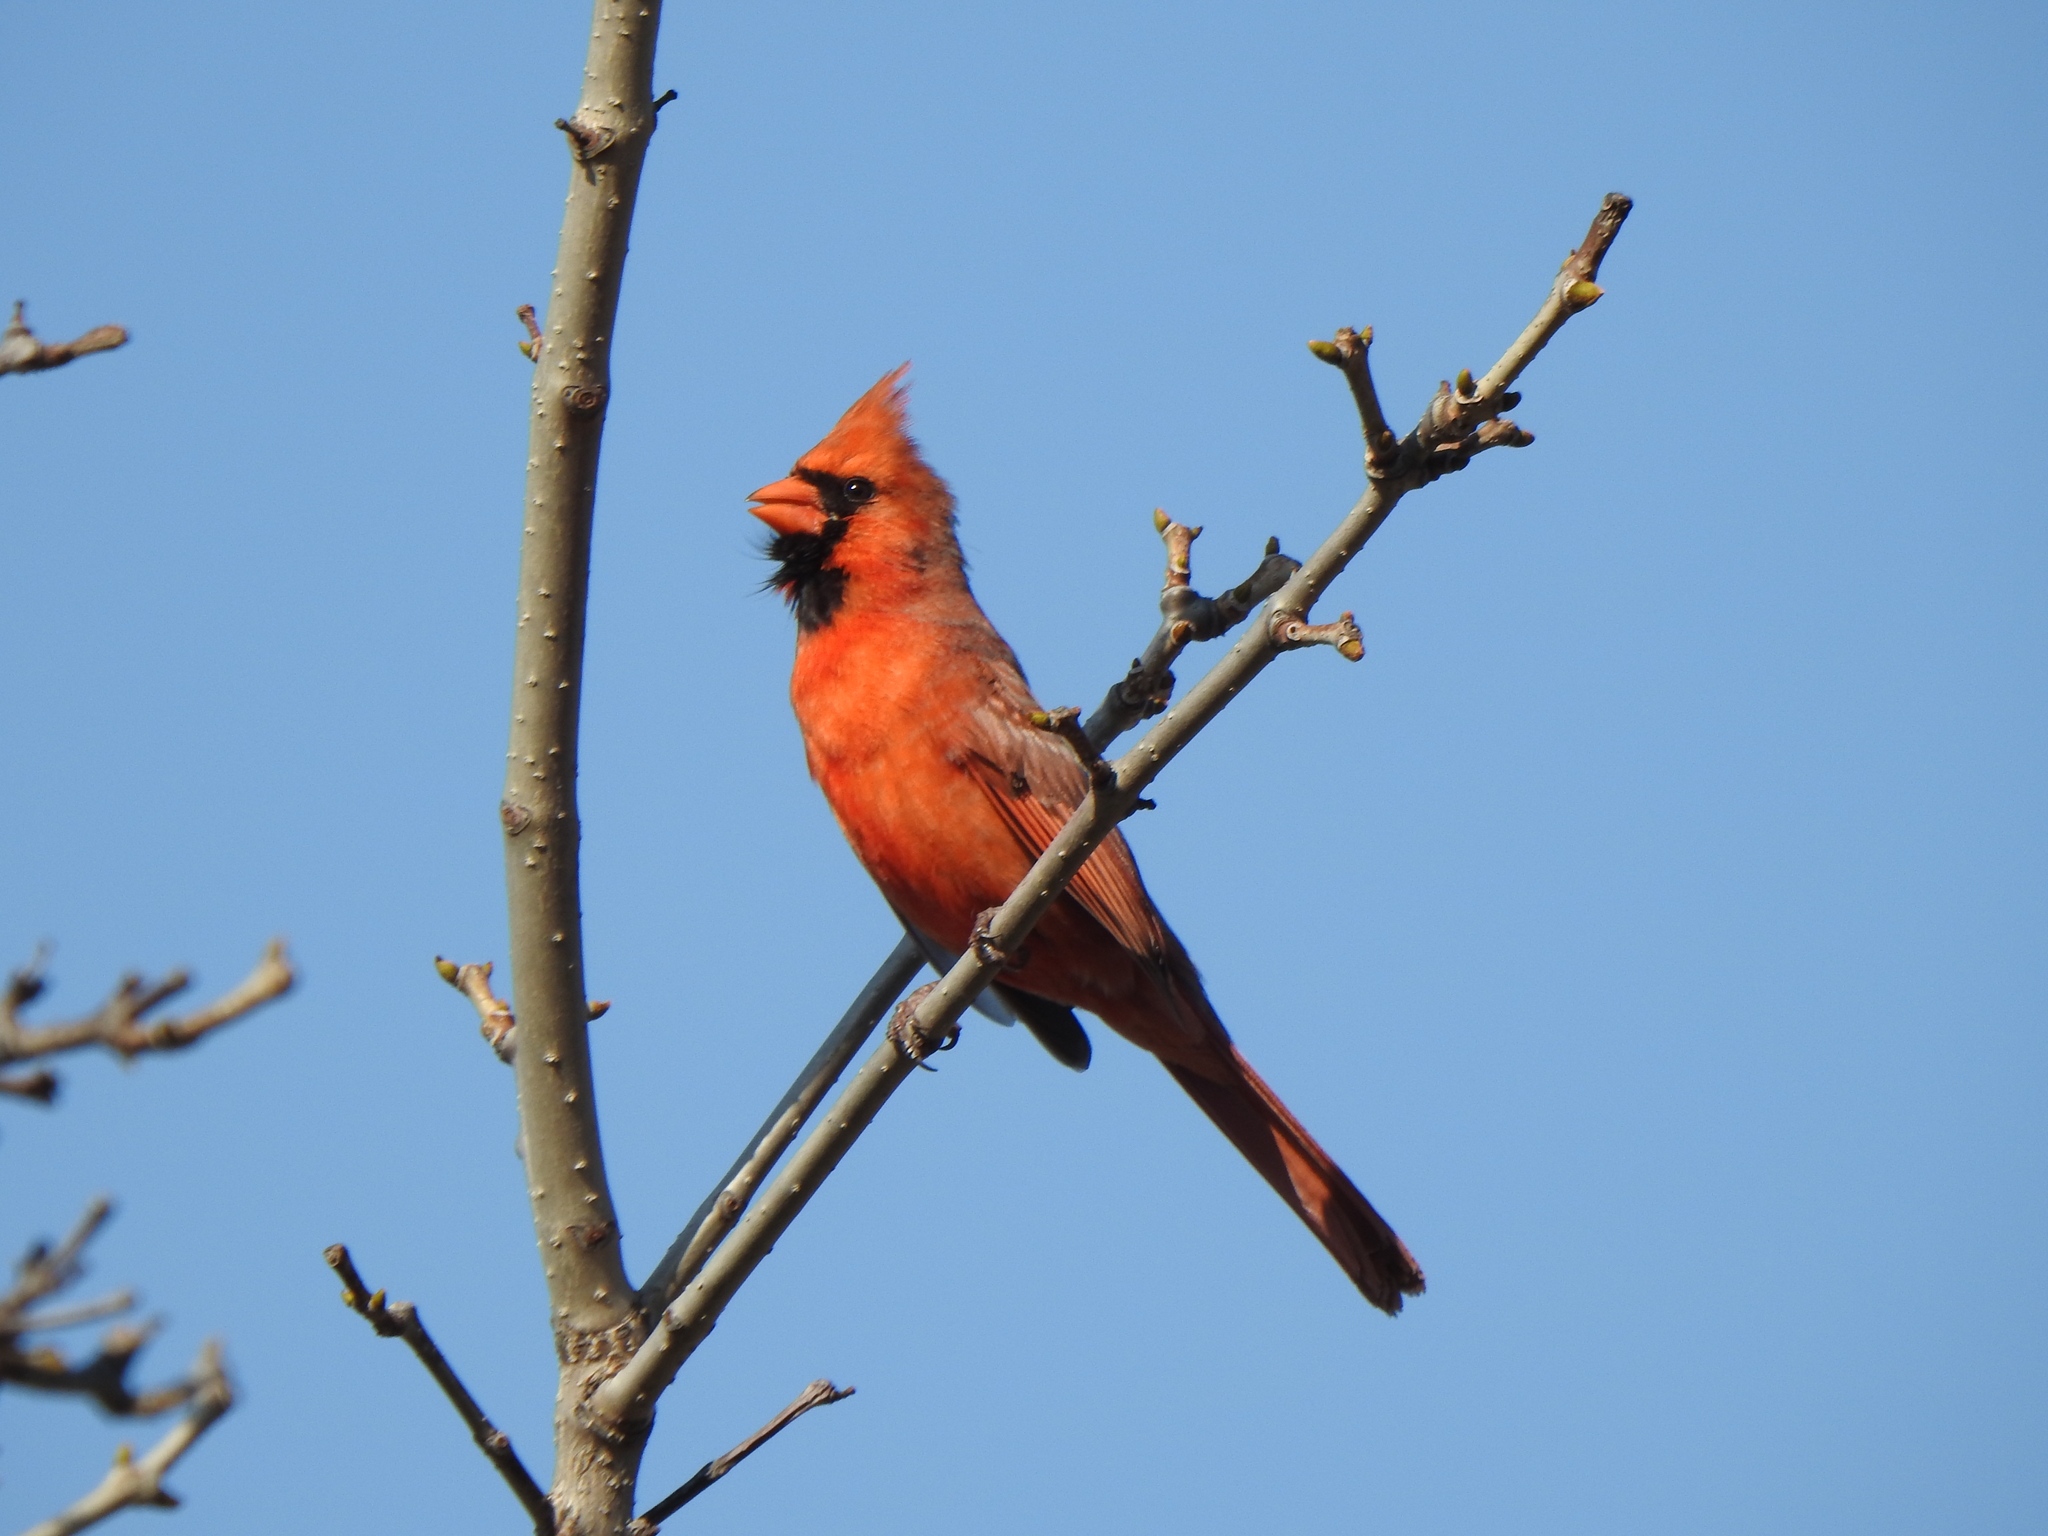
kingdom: Animalia
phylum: Chordata
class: Aves
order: Passeriformes
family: Cardinalidae
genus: Cardinalis
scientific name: Cardinalis cardinalis
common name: Northern cardinal
